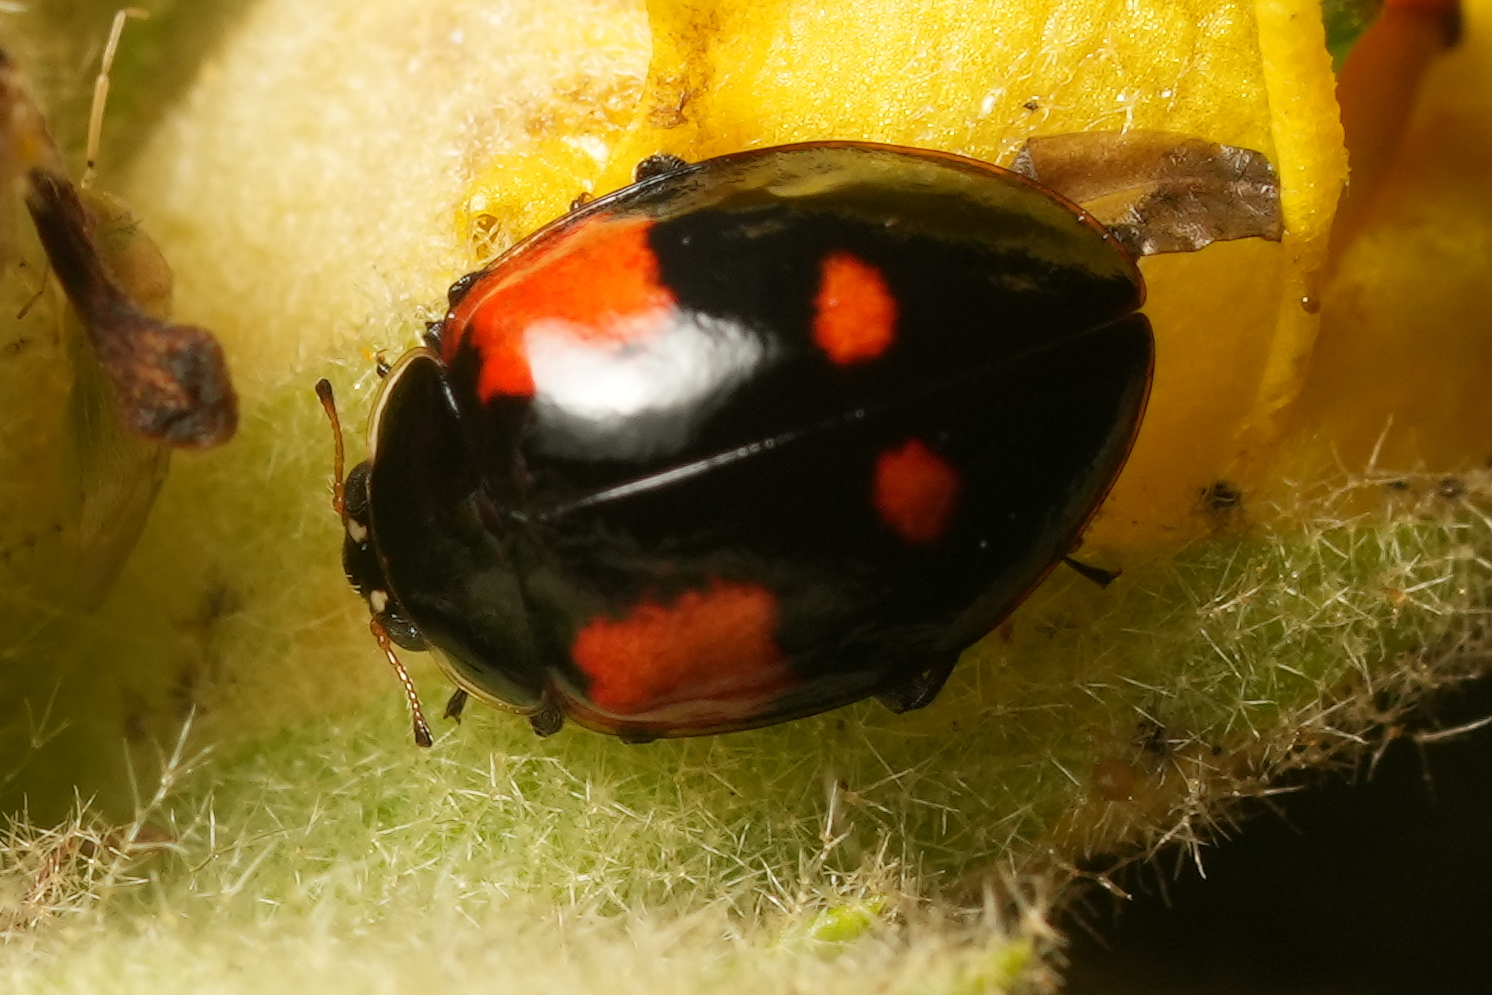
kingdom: Animalia
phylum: Arthropoda
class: Insecta
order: Coleoptera
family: Coccinellidae
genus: Adalia
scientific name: Adalia bipunctata
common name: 2-spot ladybird
